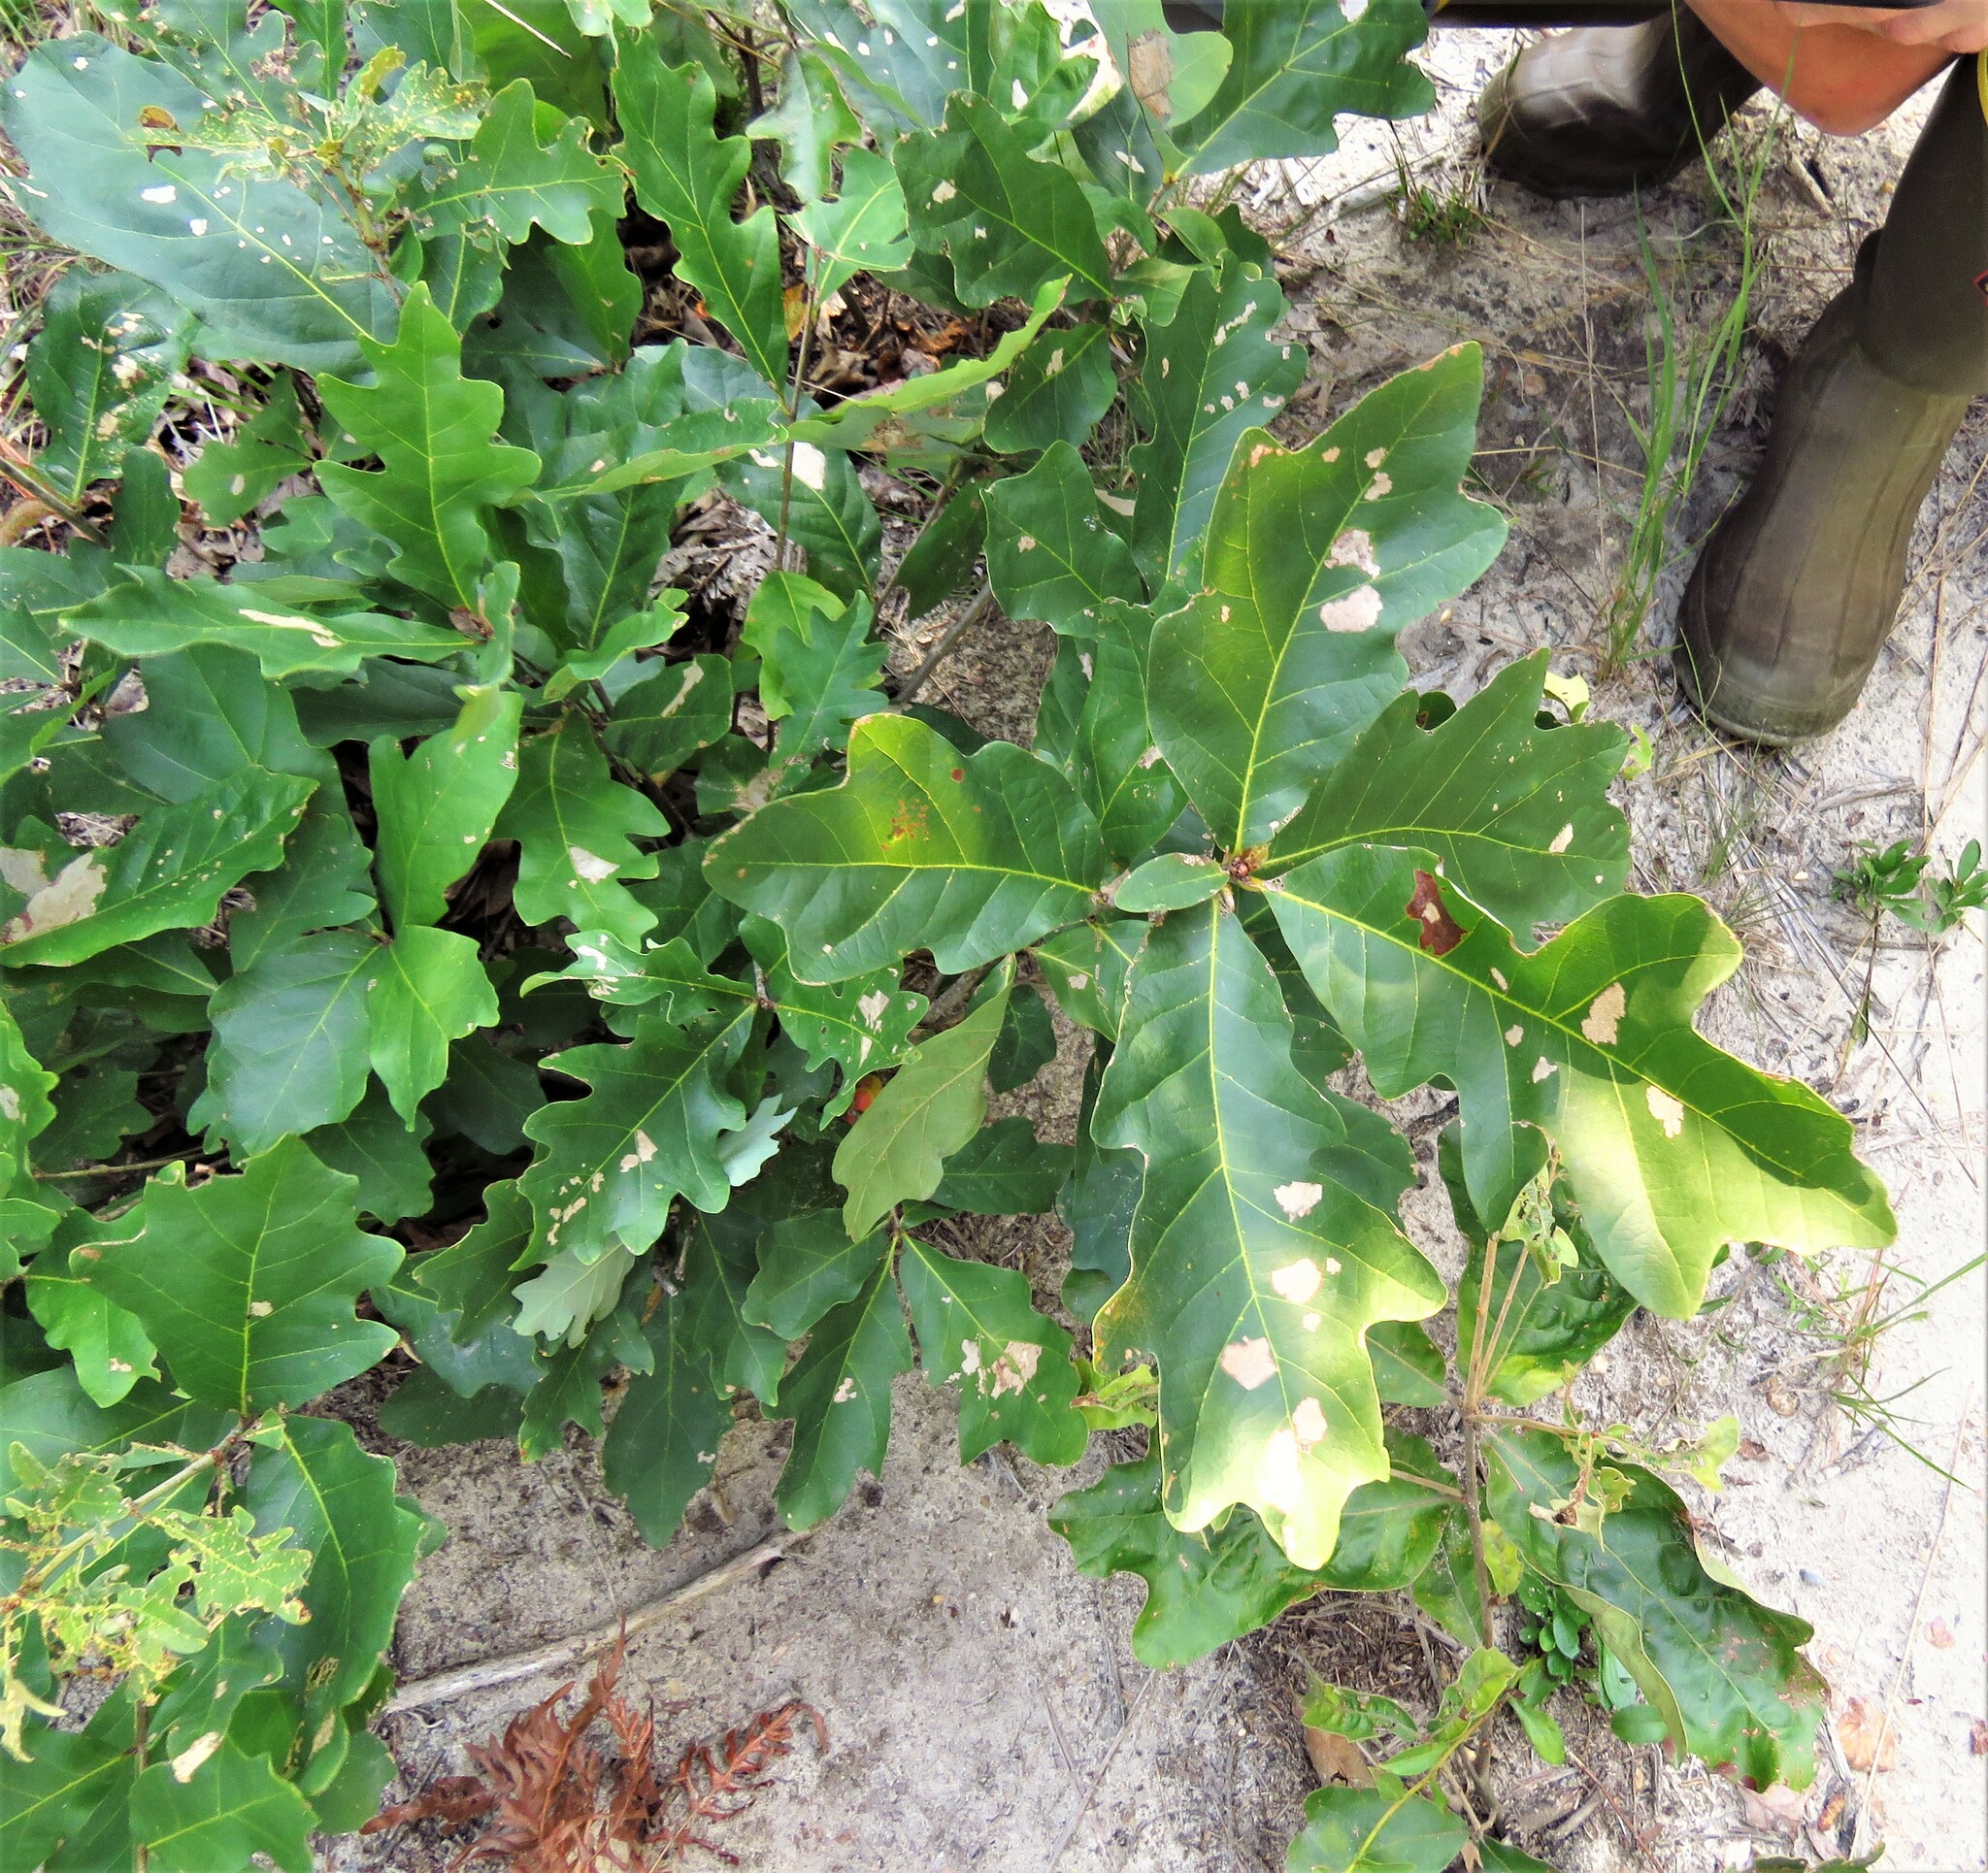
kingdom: Plantae
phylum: Tracheophyta
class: Magnoliopsida
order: Fagales
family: Fagaceae
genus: Quercus
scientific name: Quercus alba
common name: White oak
